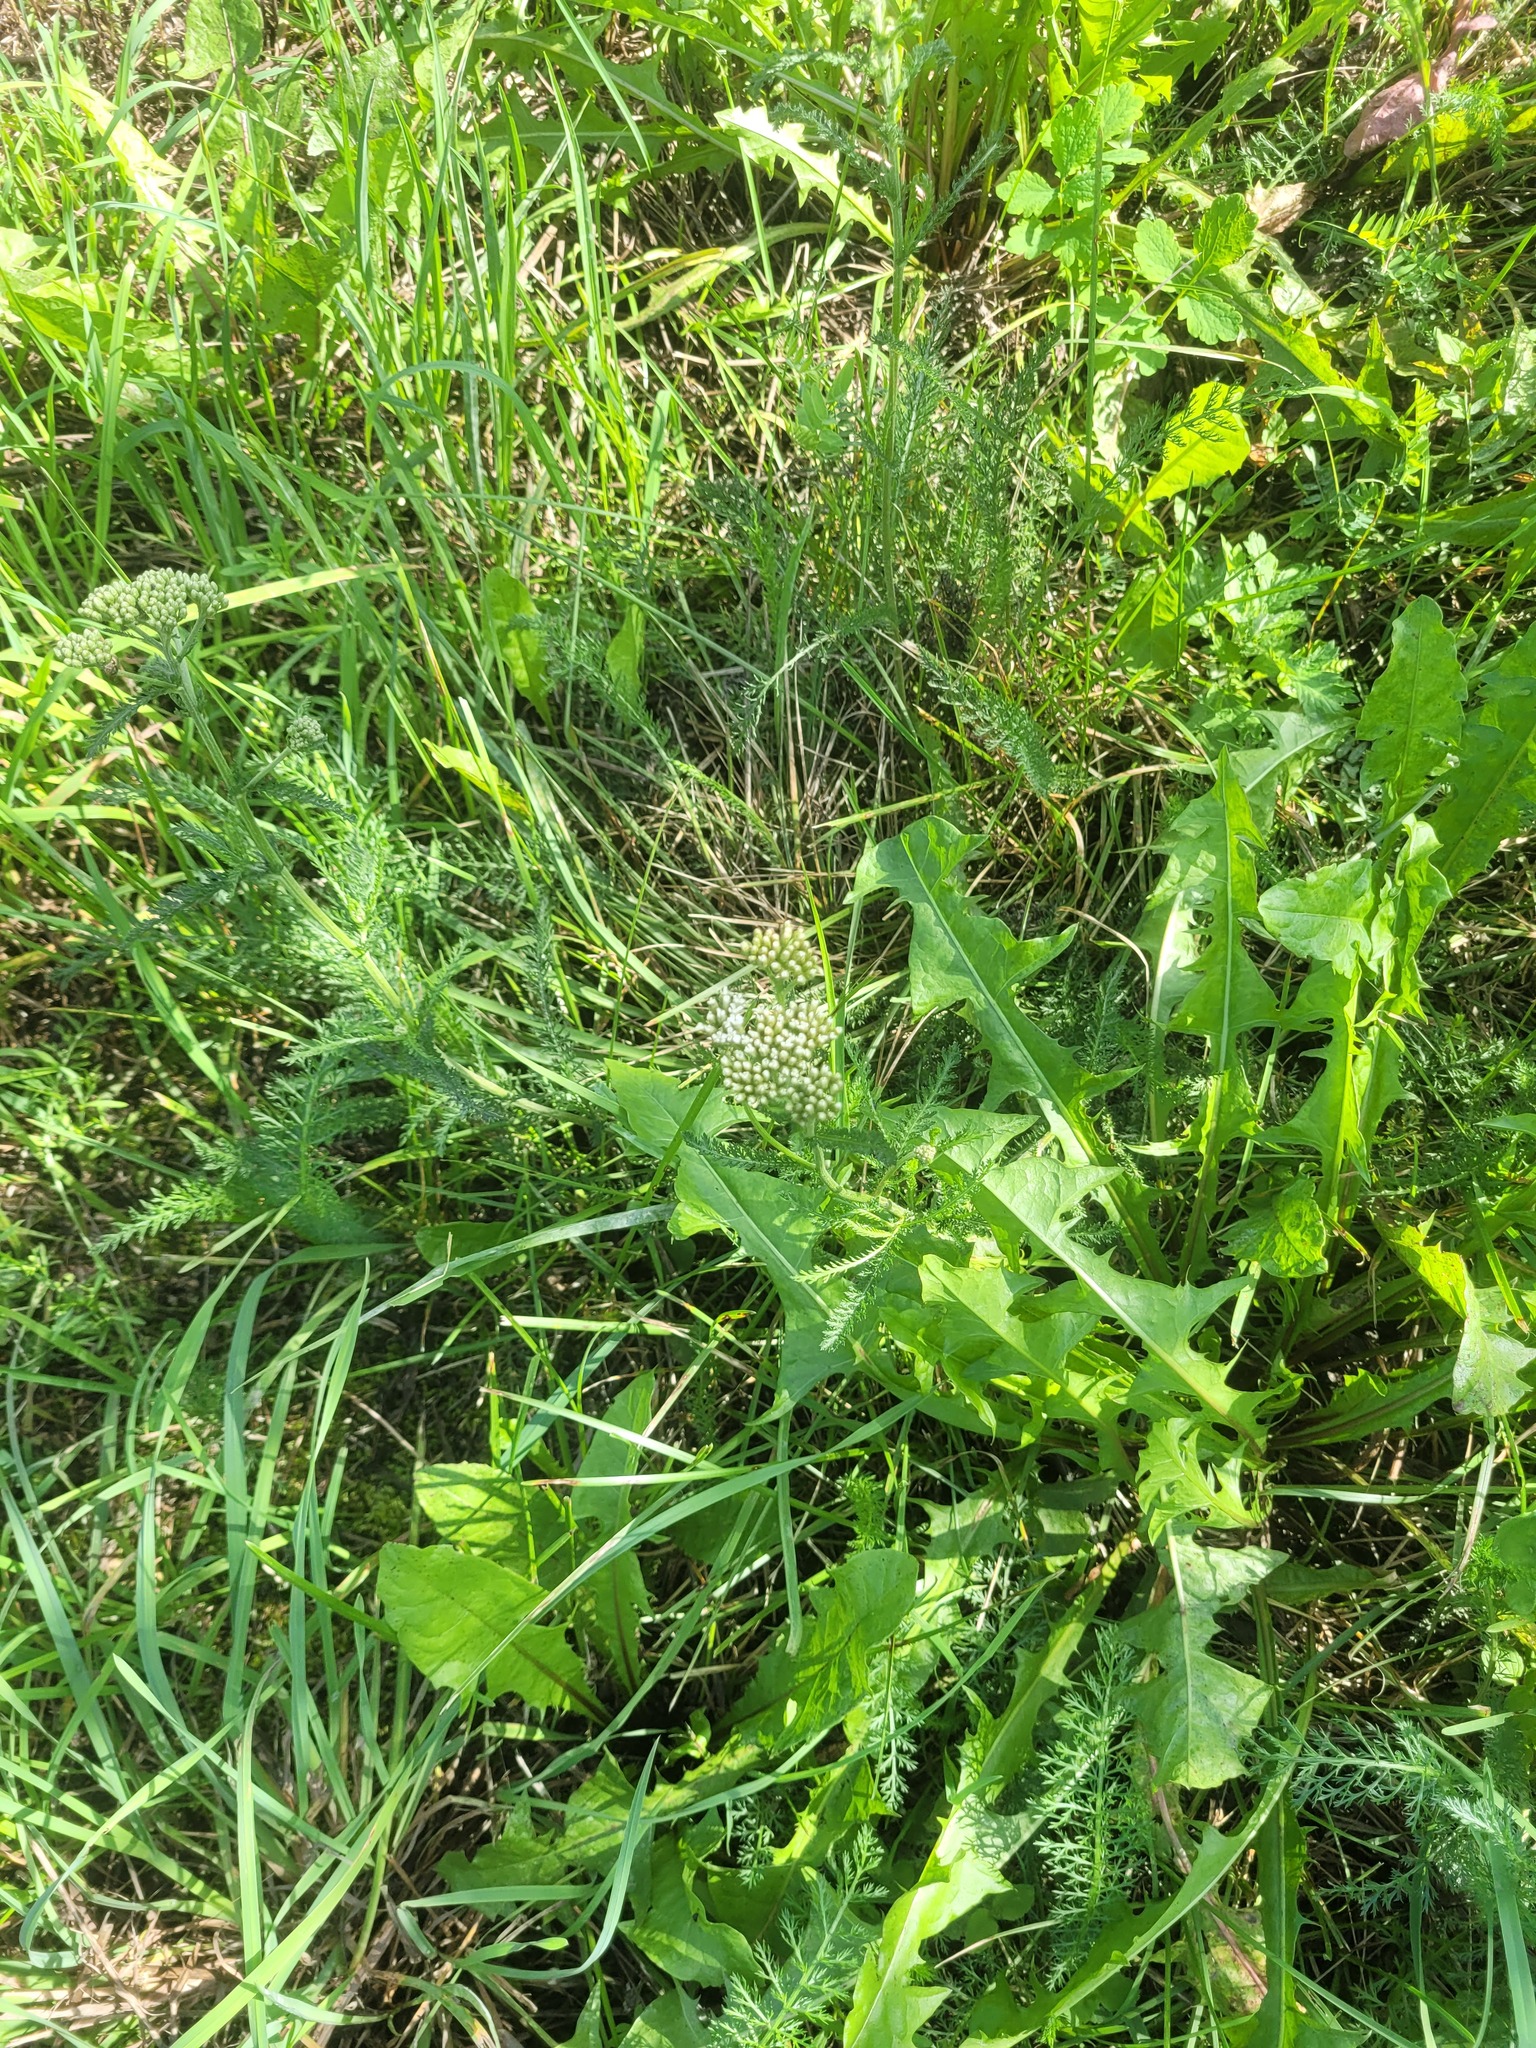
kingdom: Plantae
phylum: Tracheophyta
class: Magnoliopsida
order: Asterales
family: Asteraceae
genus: Achillea
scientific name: Achillea millefolium
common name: Yarrow
